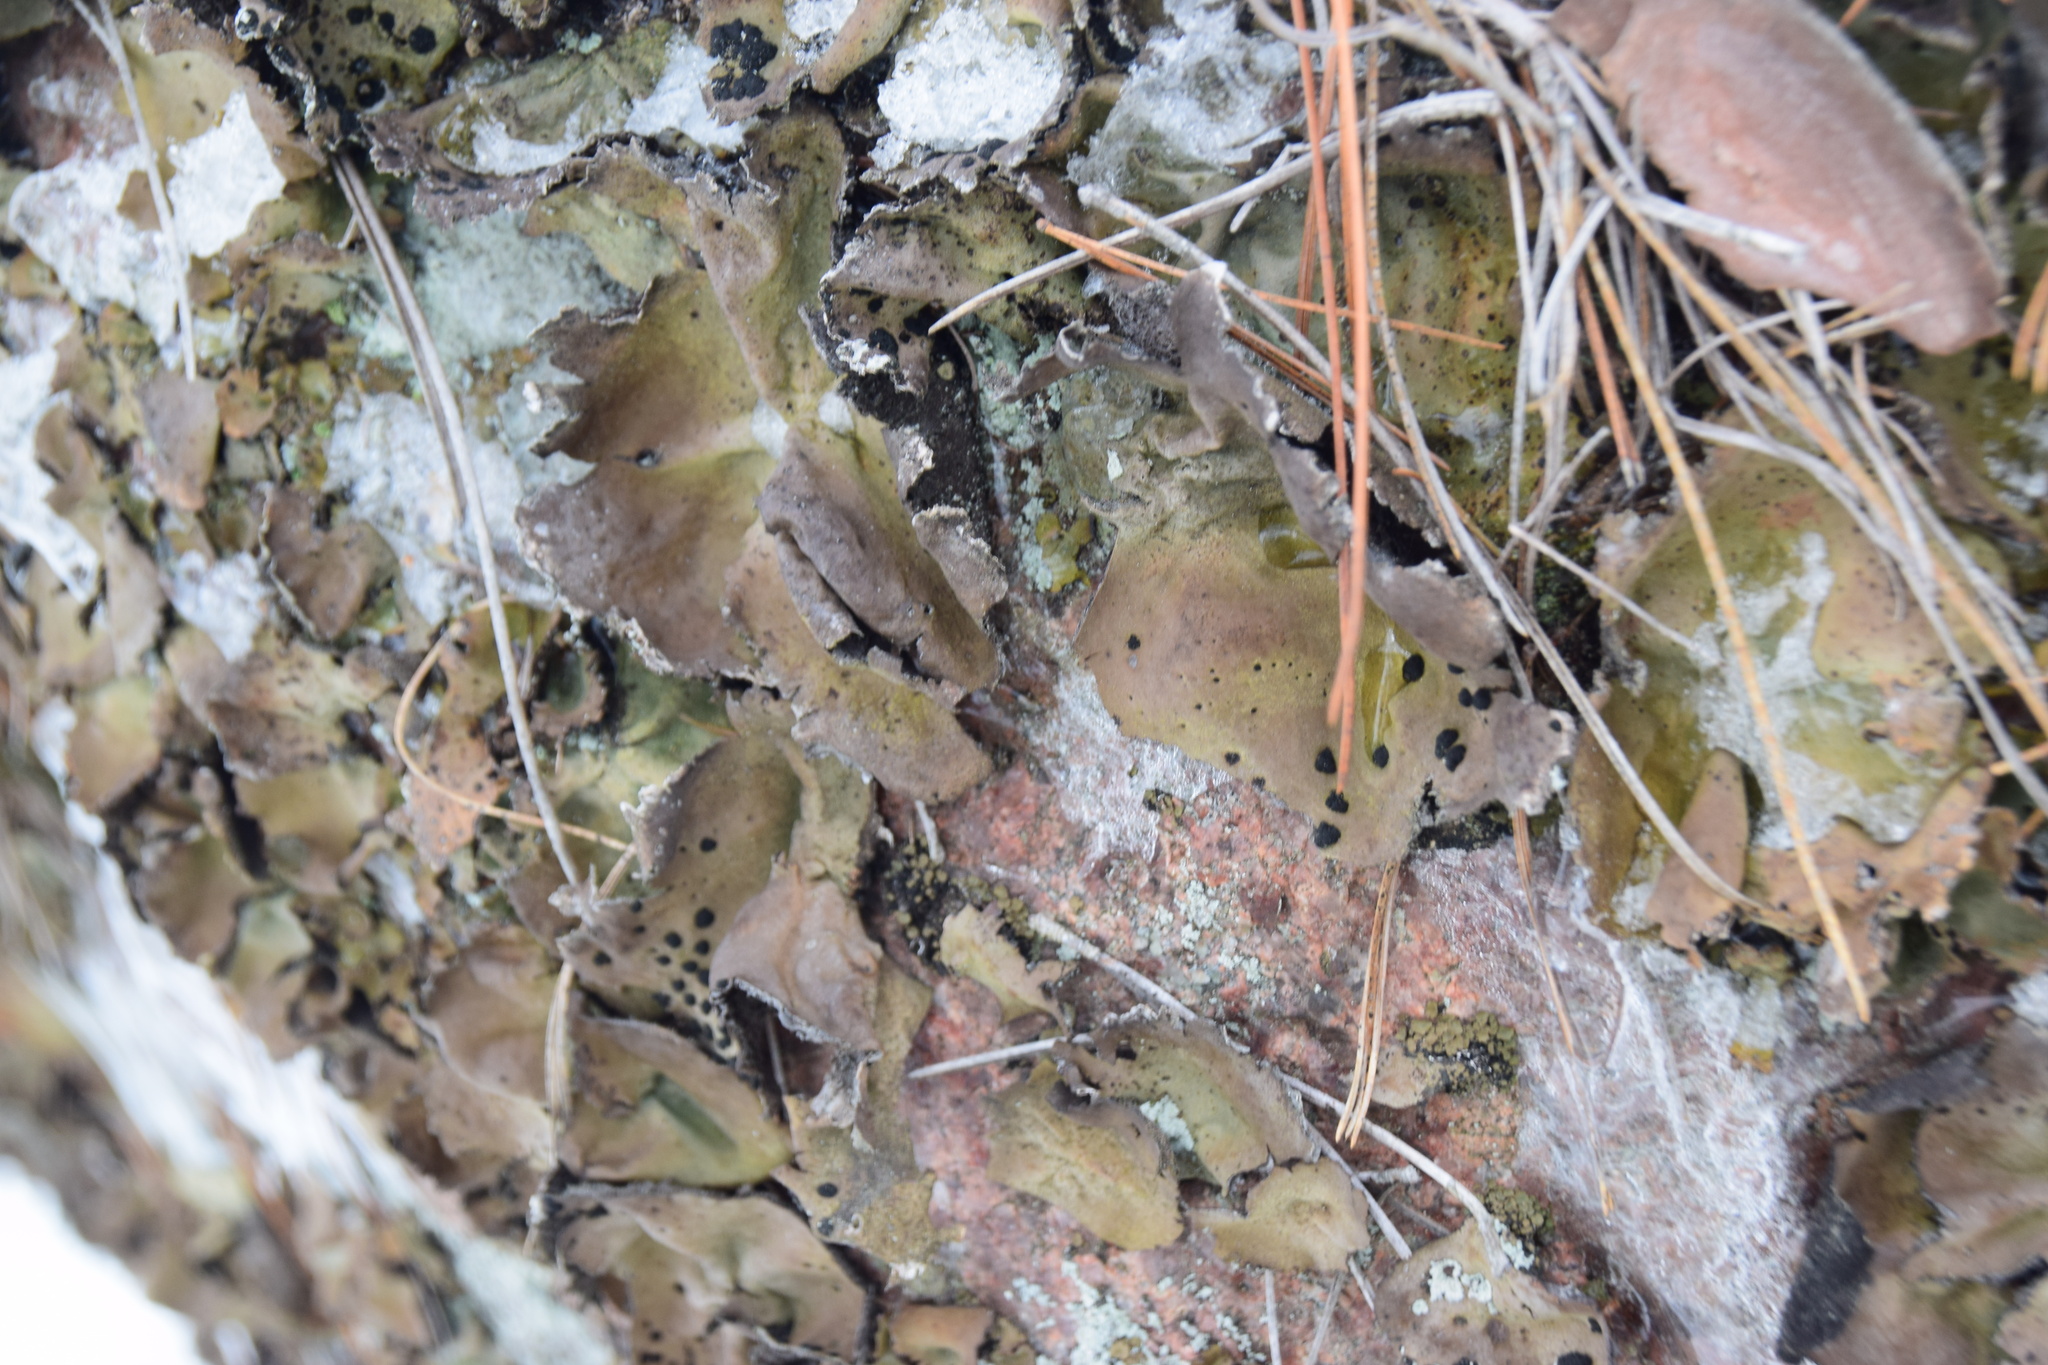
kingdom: Fungi
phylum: Ascomycota
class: Lecanoromycetes
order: Umbilicariales
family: Umbilicariaceae
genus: Umbilicaria
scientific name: Umbilicaria muhlenbergii
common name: Lesser rocktripe
